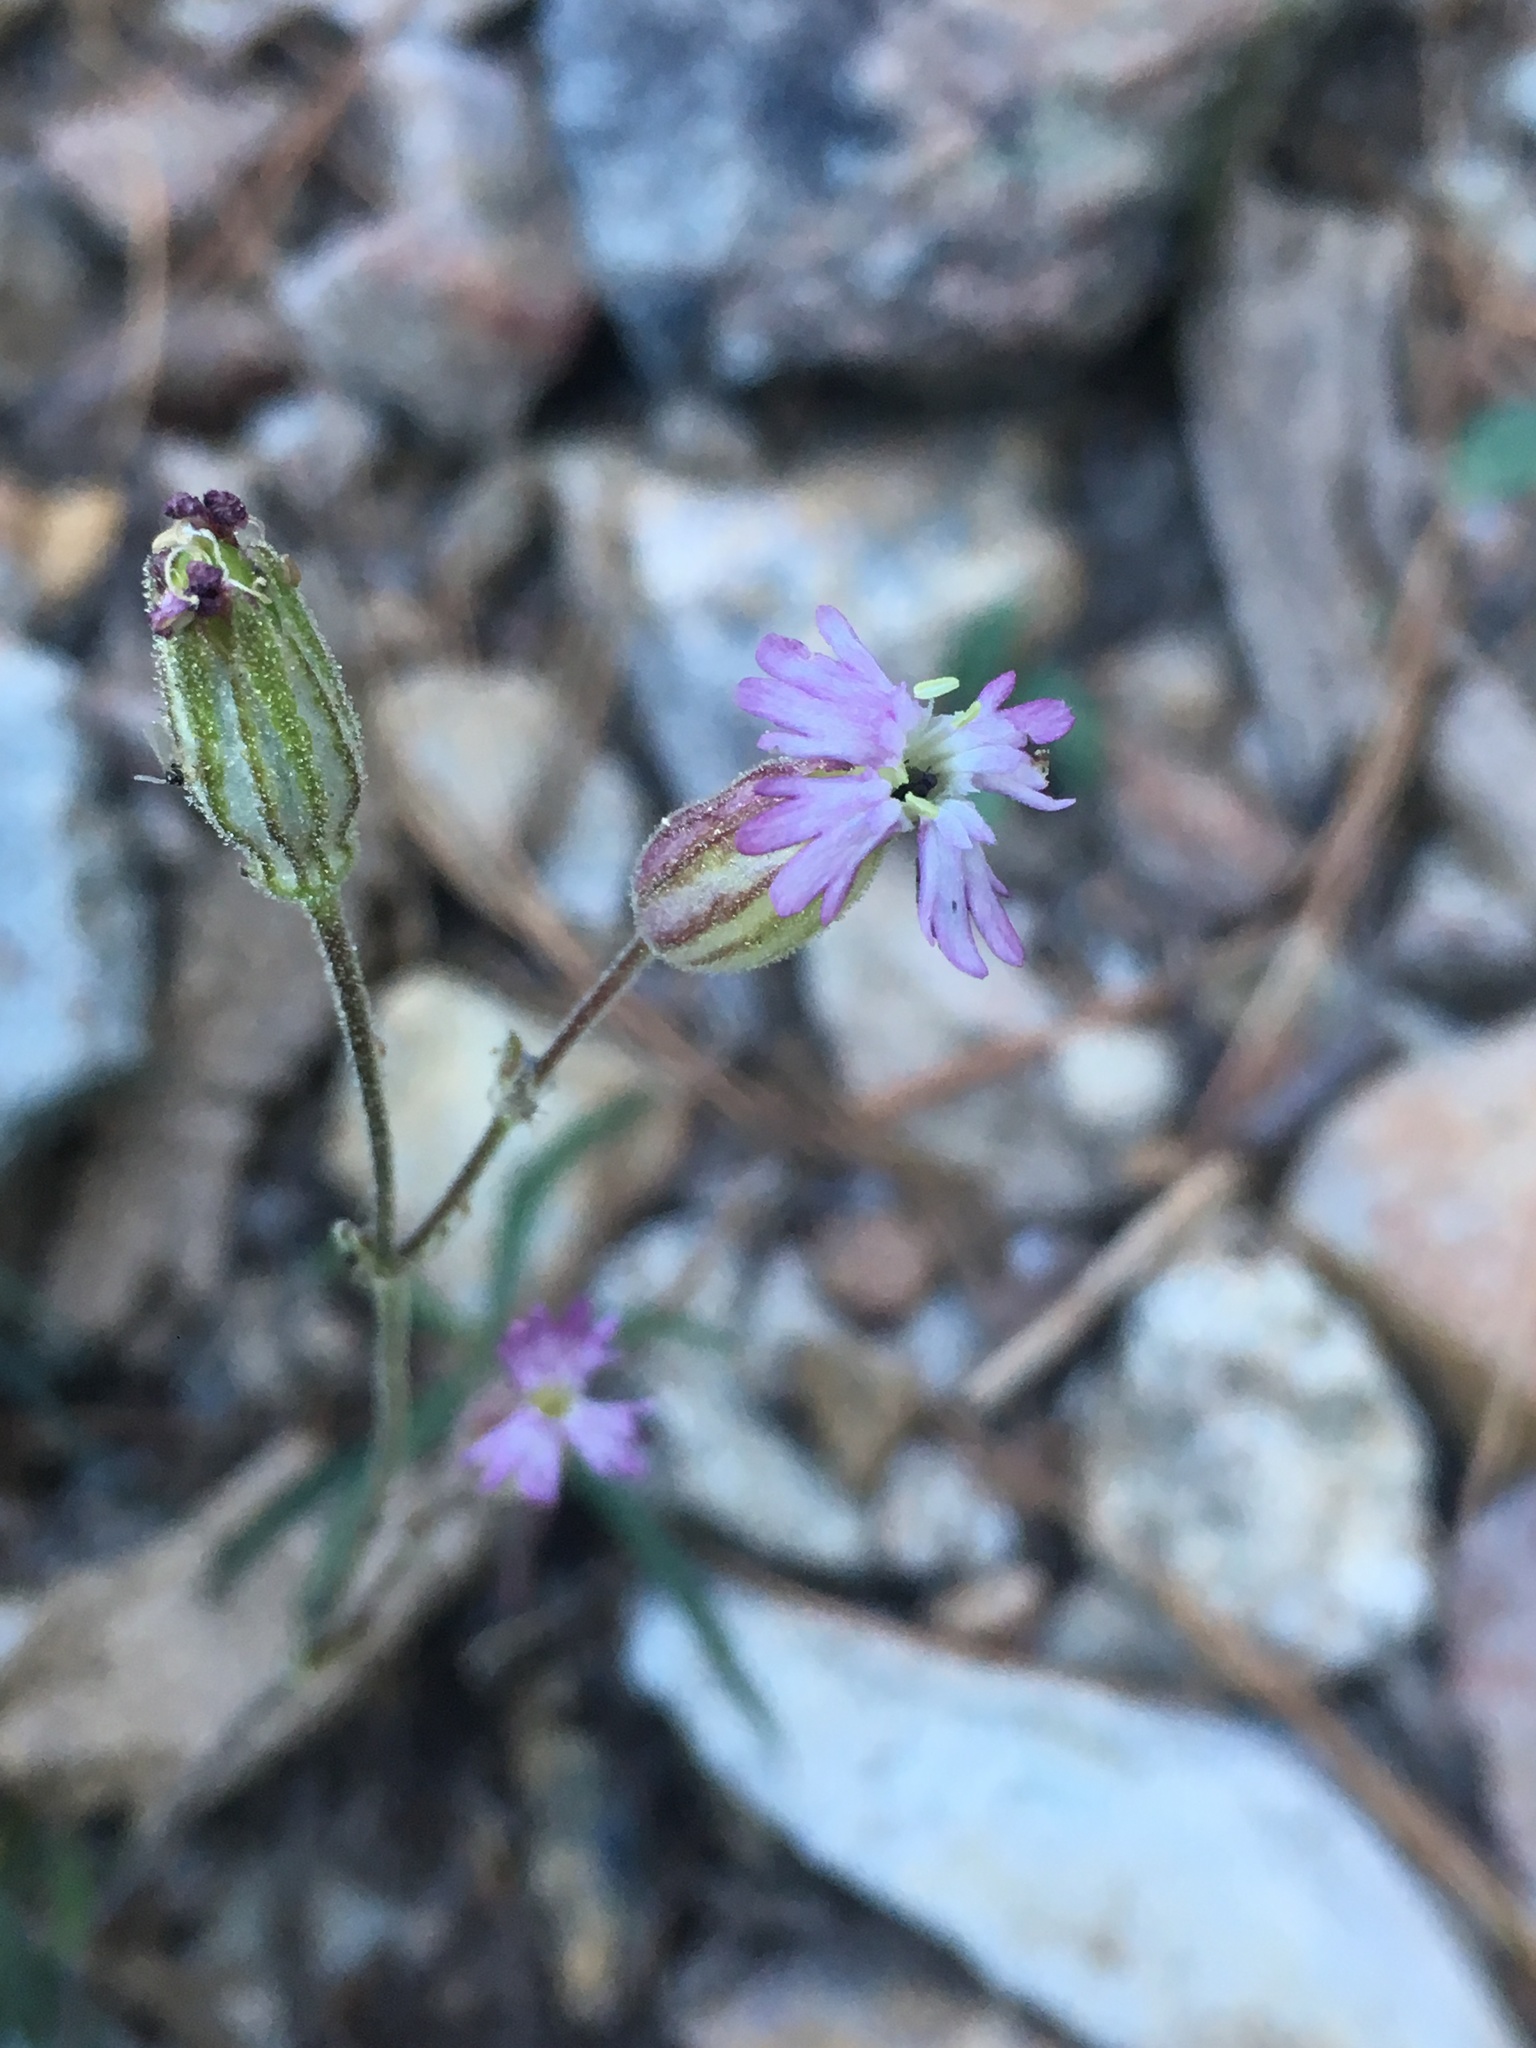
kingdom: Plantae
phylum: Tracheophyta
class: Magnoliopsida
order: Caryophyllales
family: Caryophyllaceae
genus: Silene
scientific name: Silene grayi
